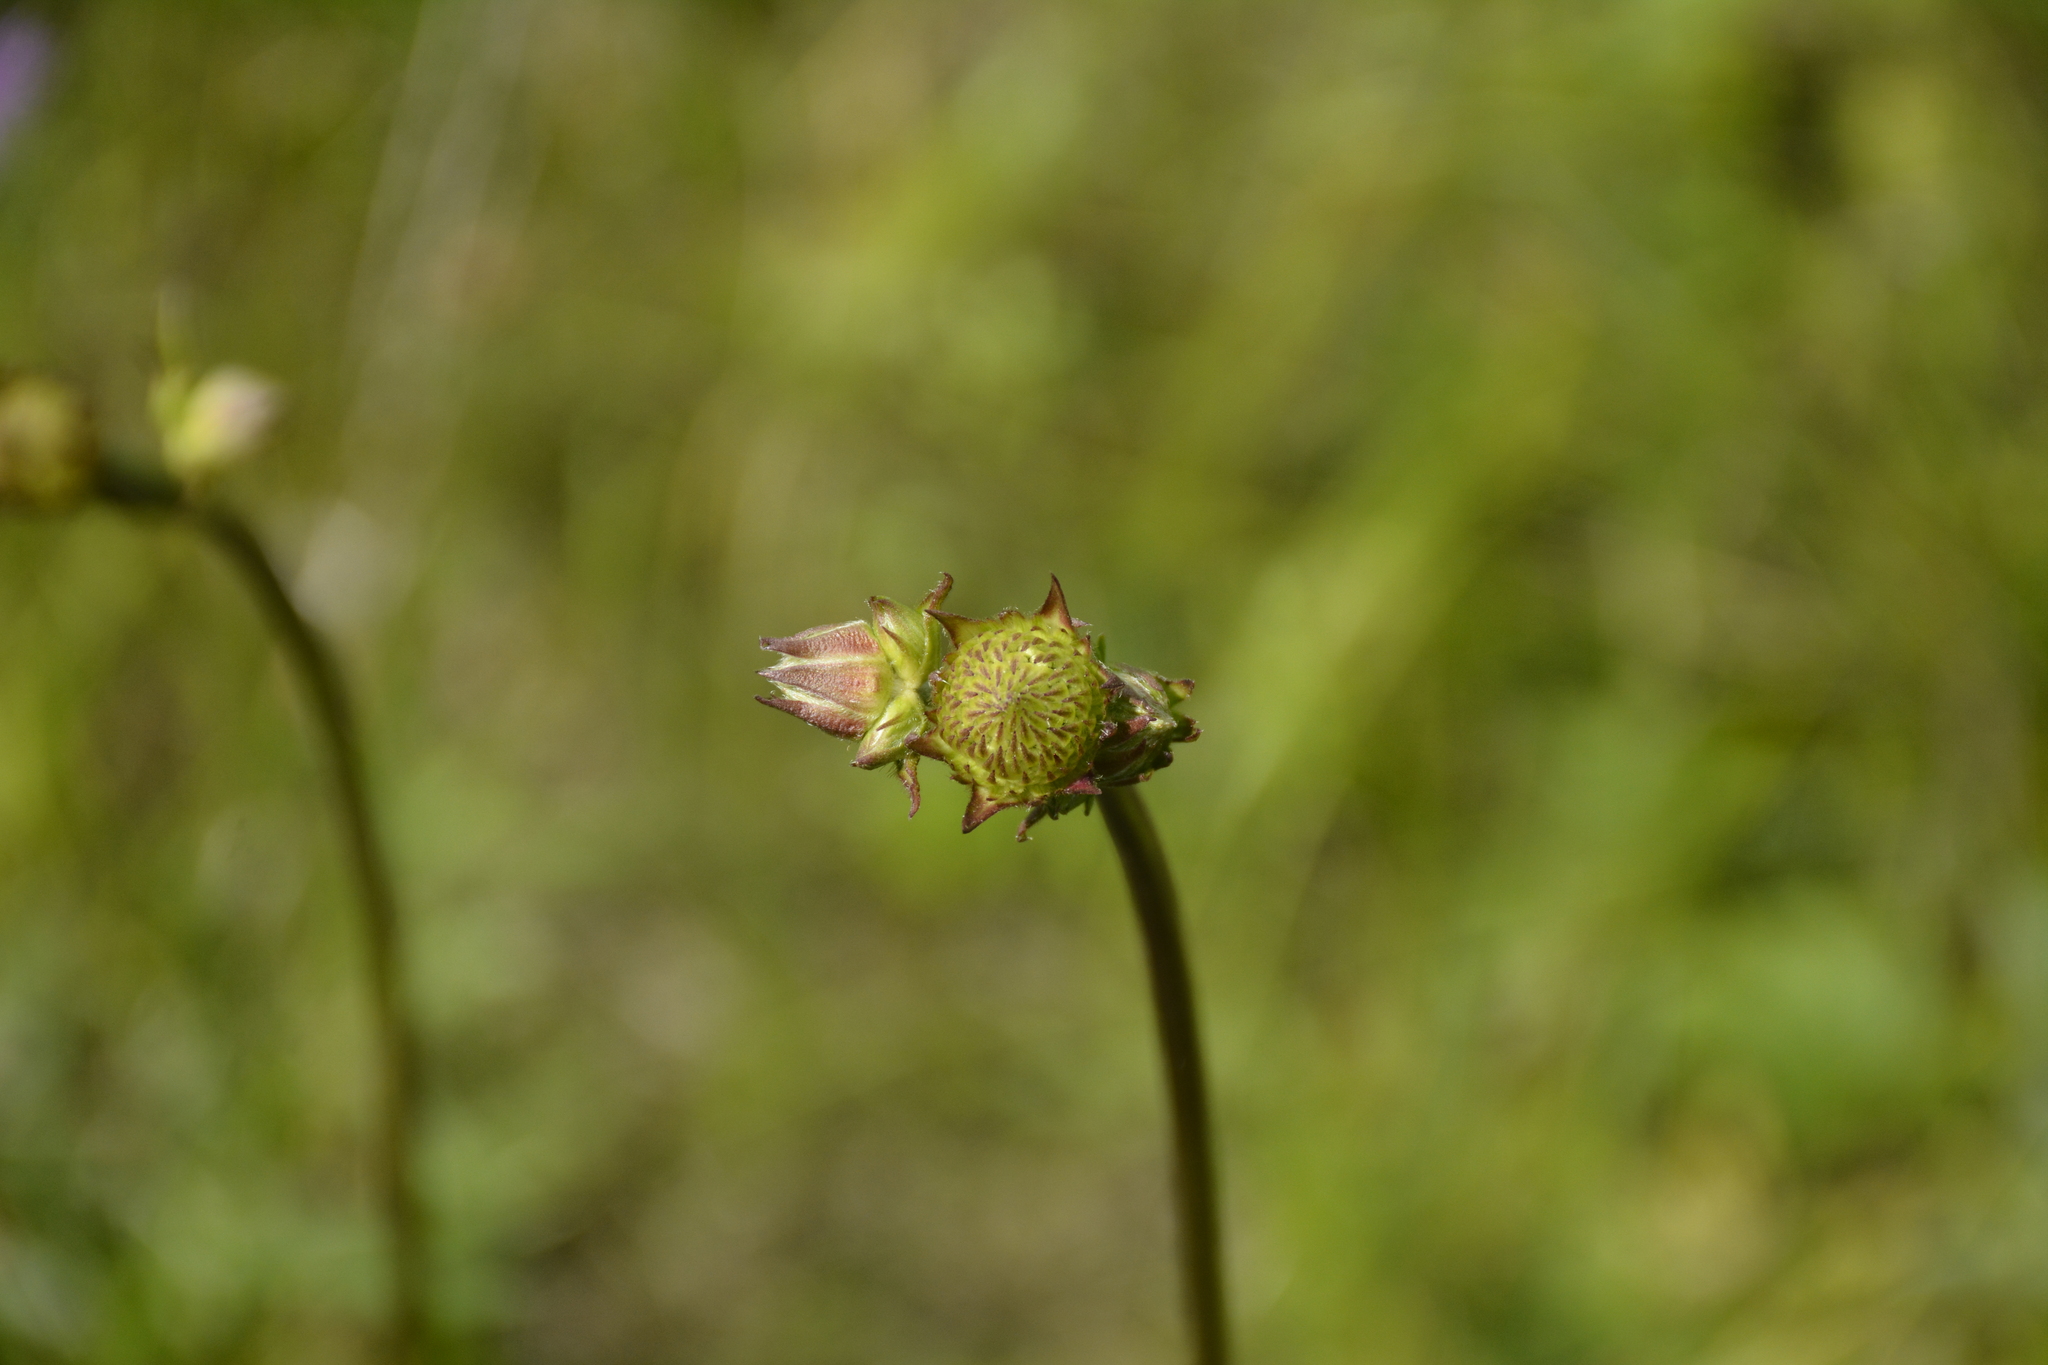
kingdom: Plantae
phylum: Tracheophyta
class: Magnoliopsida
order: Dipsacales
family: Caprifoliaceae
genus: Succisa
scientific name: Succisa pratensis
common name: Devil's-bit
